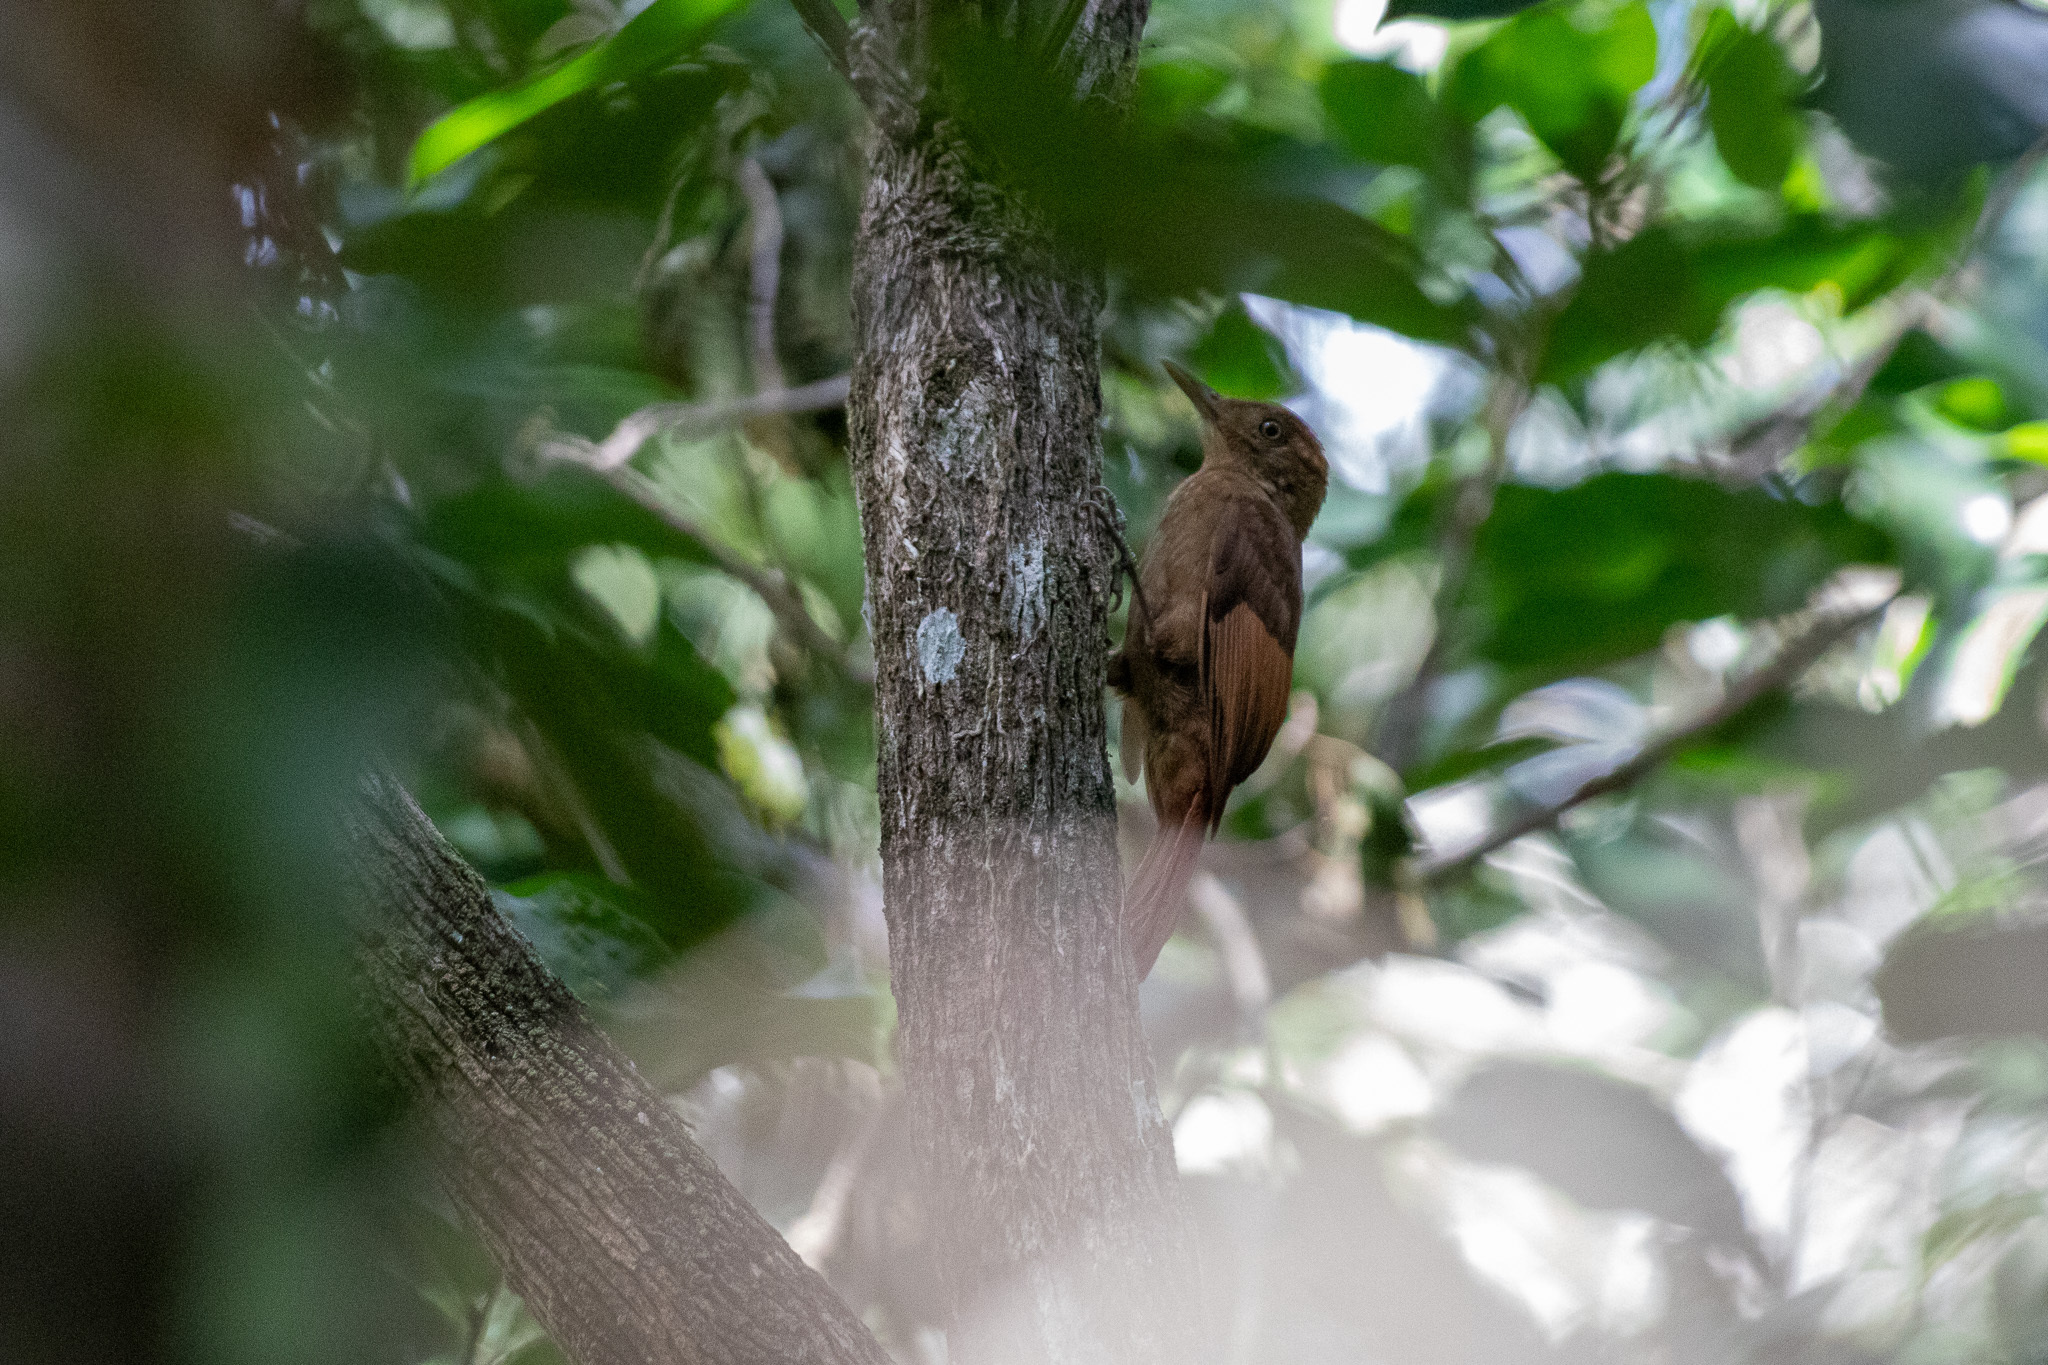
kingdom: Animalia
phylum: Chordata
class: Aves
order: Passeriformes
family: Furnariidae
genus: Dendrocincla
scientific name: Dendrocincla anabatina
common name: Tawny-winged woodcreeper
